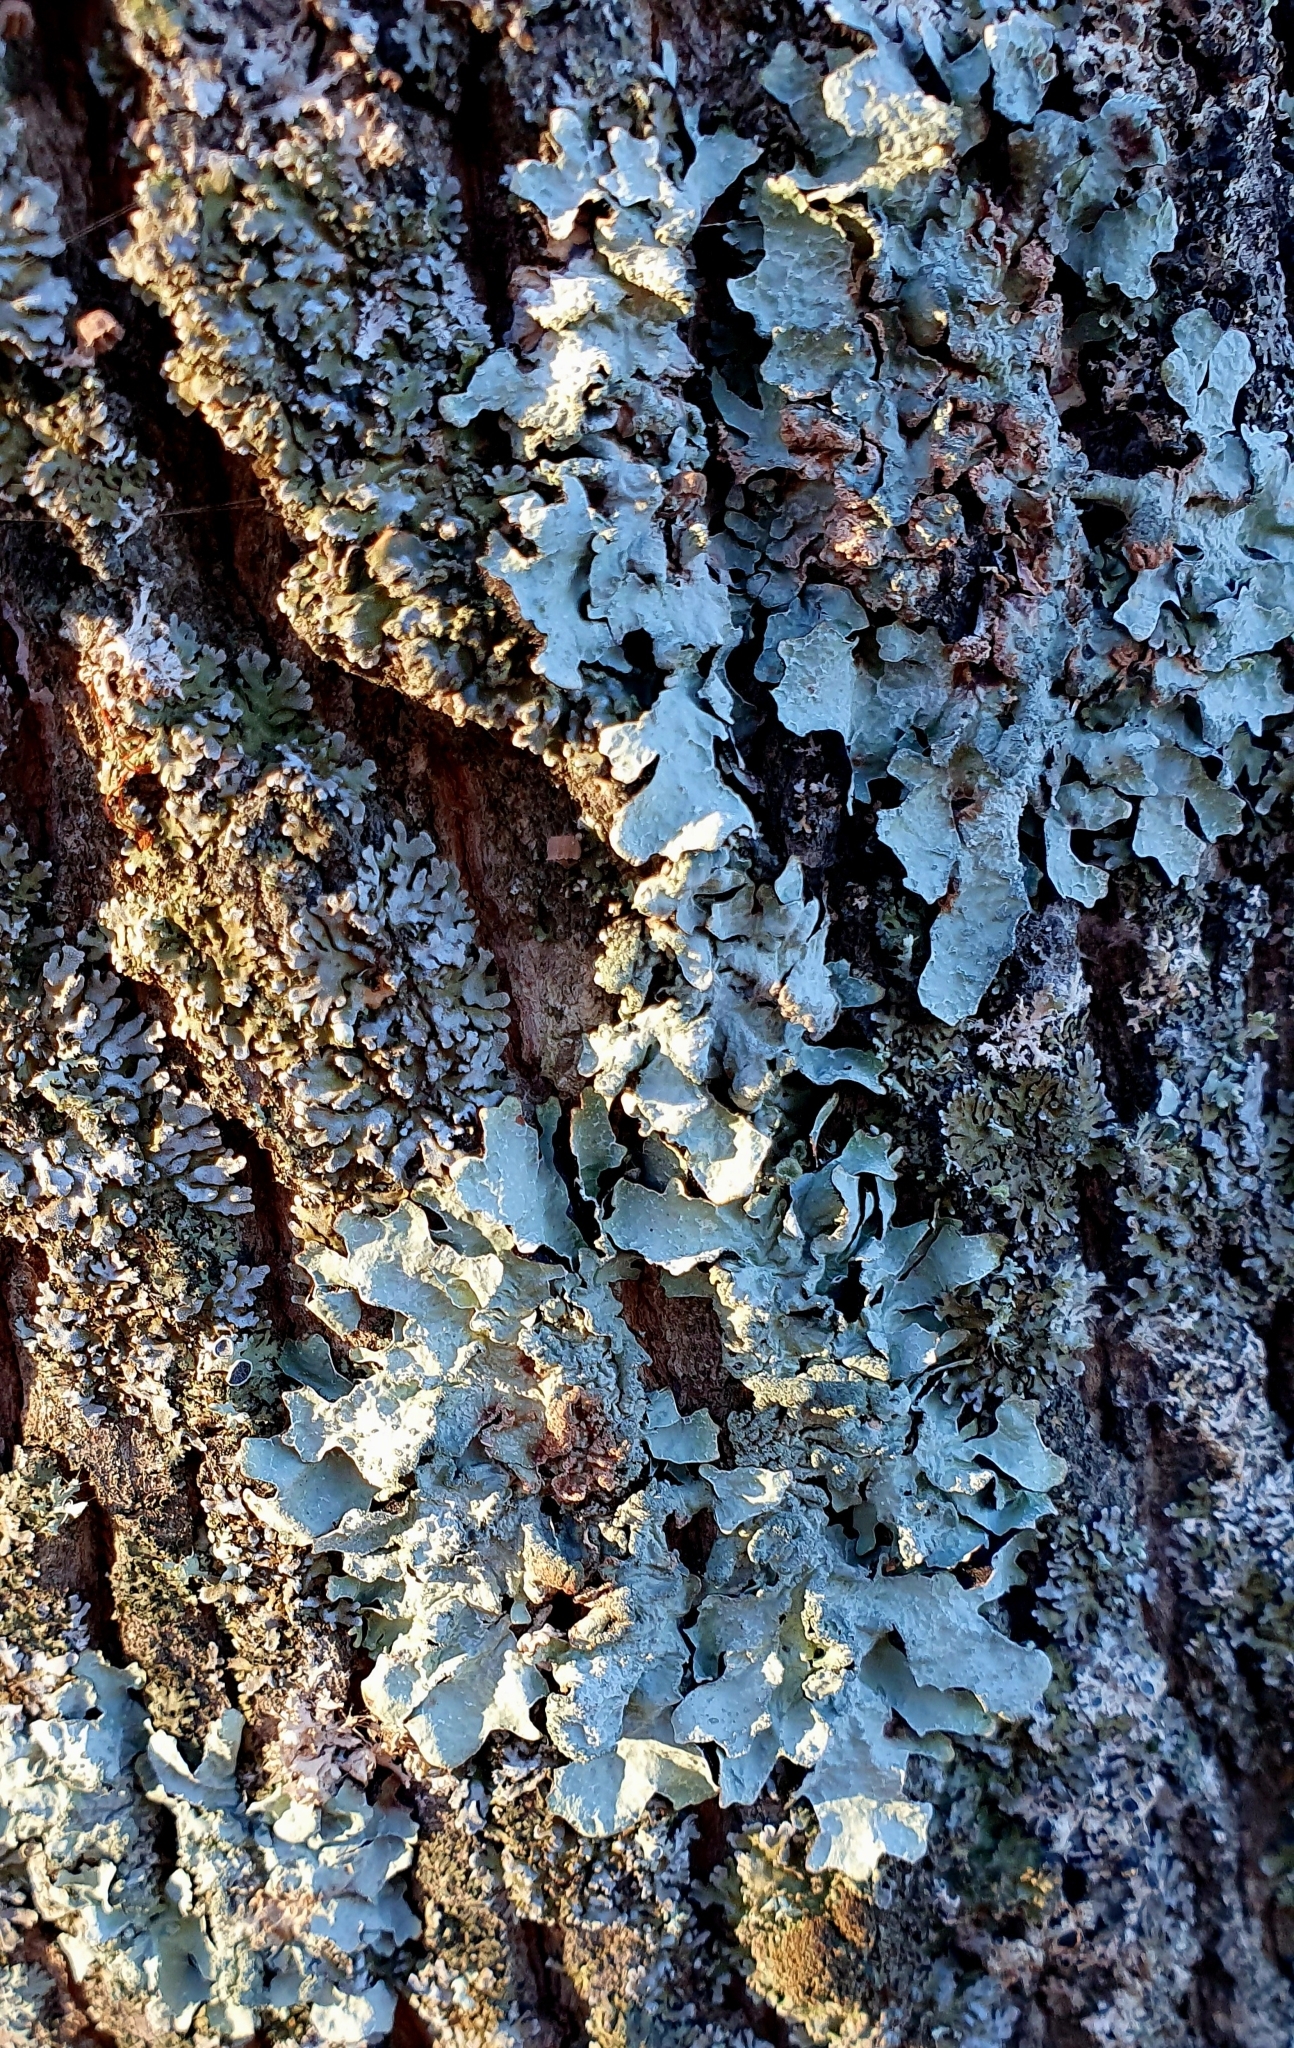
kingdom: Fungi
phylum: Ascomycota
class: Lecanoromycetes
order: Lecanorales
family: Parmeliaceae
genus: Parmelia
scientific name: Parmelia sulcata
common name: Netted shield lichen
